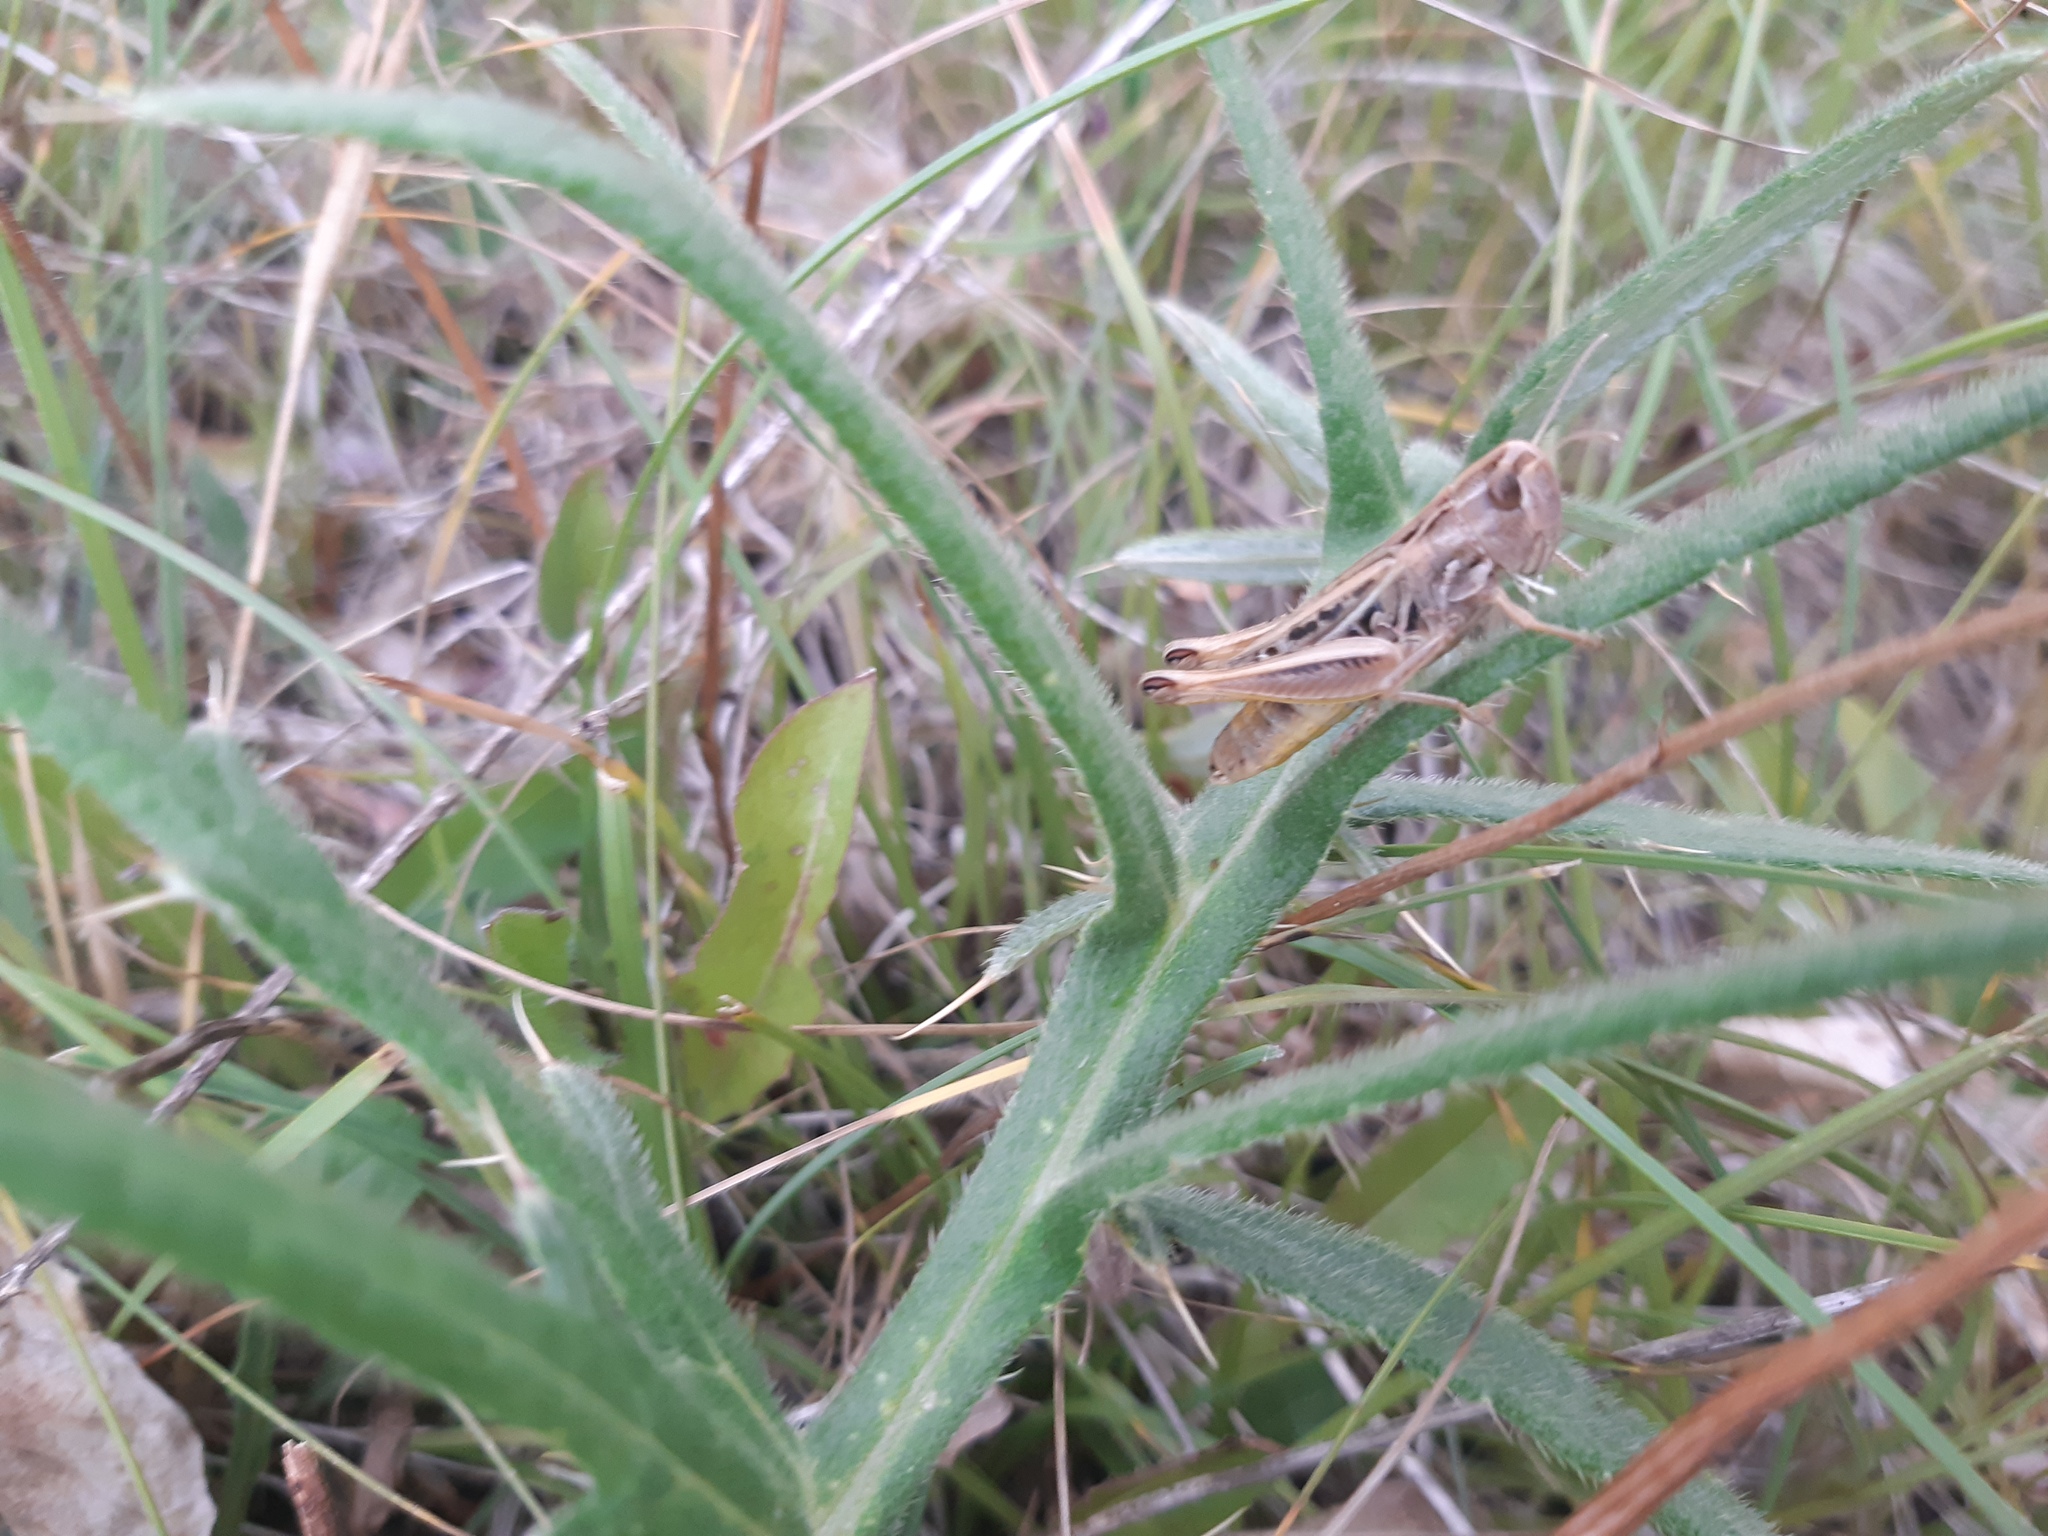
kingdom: Animalia
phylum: Arthropoda
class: Insecta
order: Orthoptera
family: Acrididae
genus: Stenobothrus
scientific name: Stenobothrus nigromaculatus
